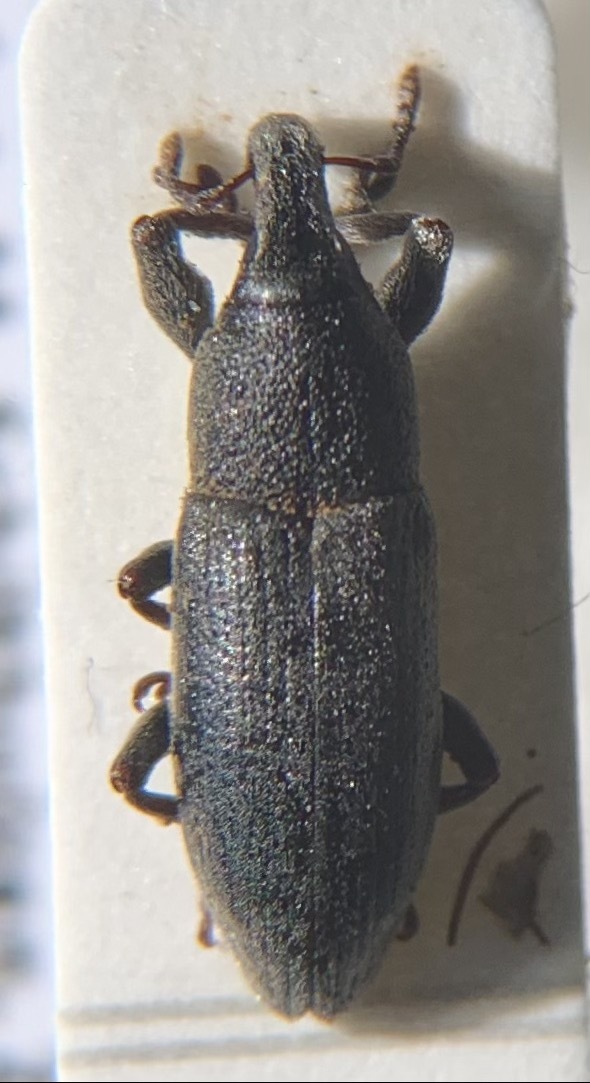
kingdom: Animalia
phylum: Arthropoda
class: Insecta
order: Coleoptera
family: Curculionidae
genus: Lixus
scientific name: Lixus angustus
